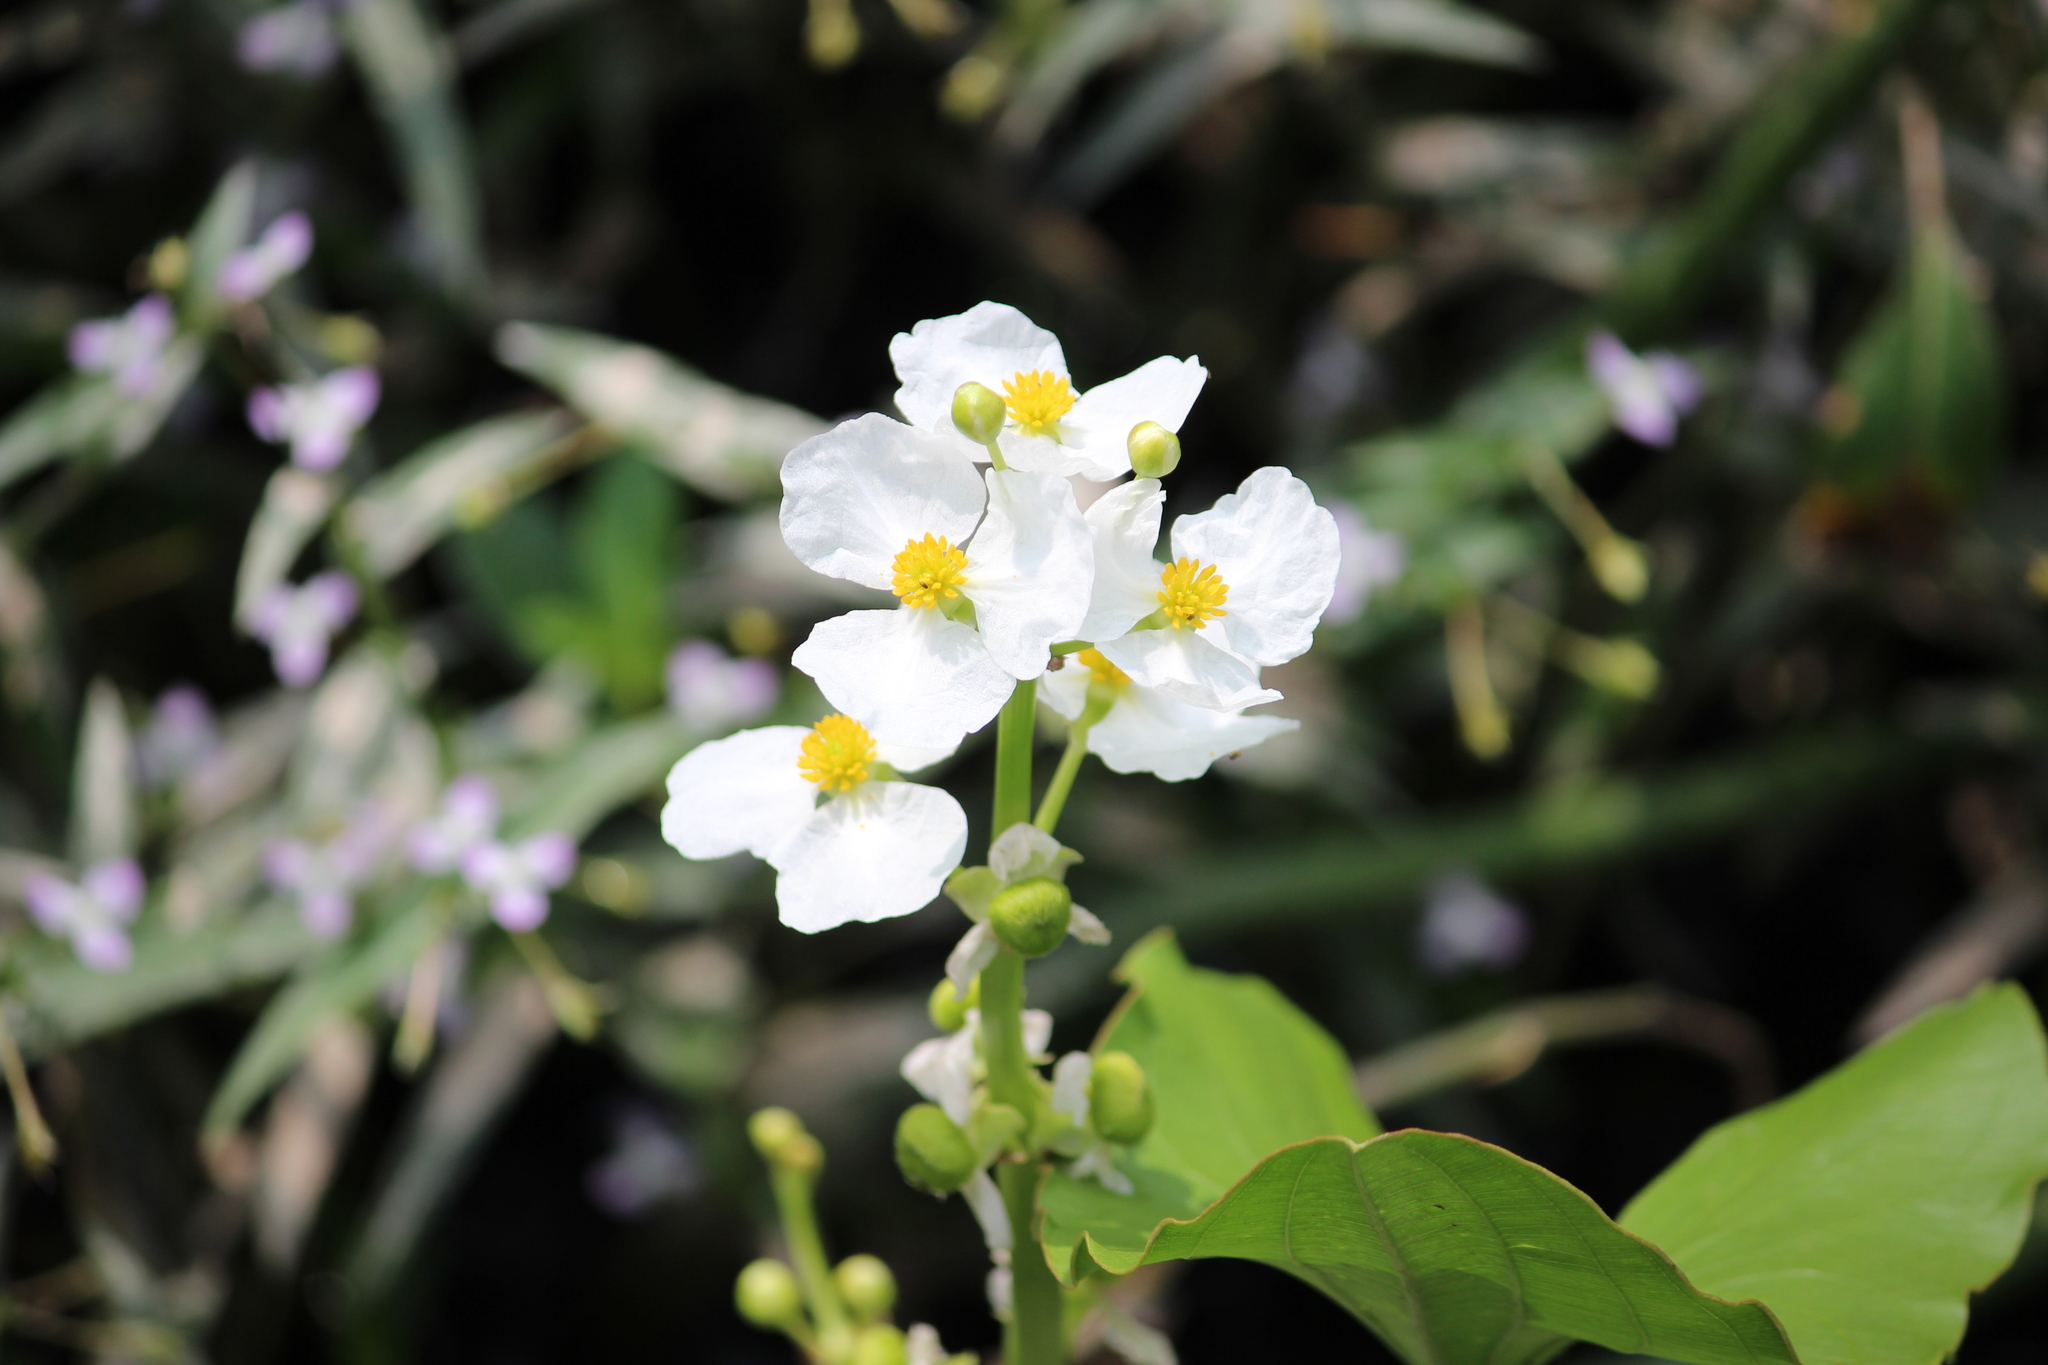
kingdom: Plantae
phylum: Tracheophyta
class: Liliopsida
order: Alismatales
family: Alismataceae
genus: Sagittaria
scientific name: Sagittaria latifolia
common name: Duck-potato
